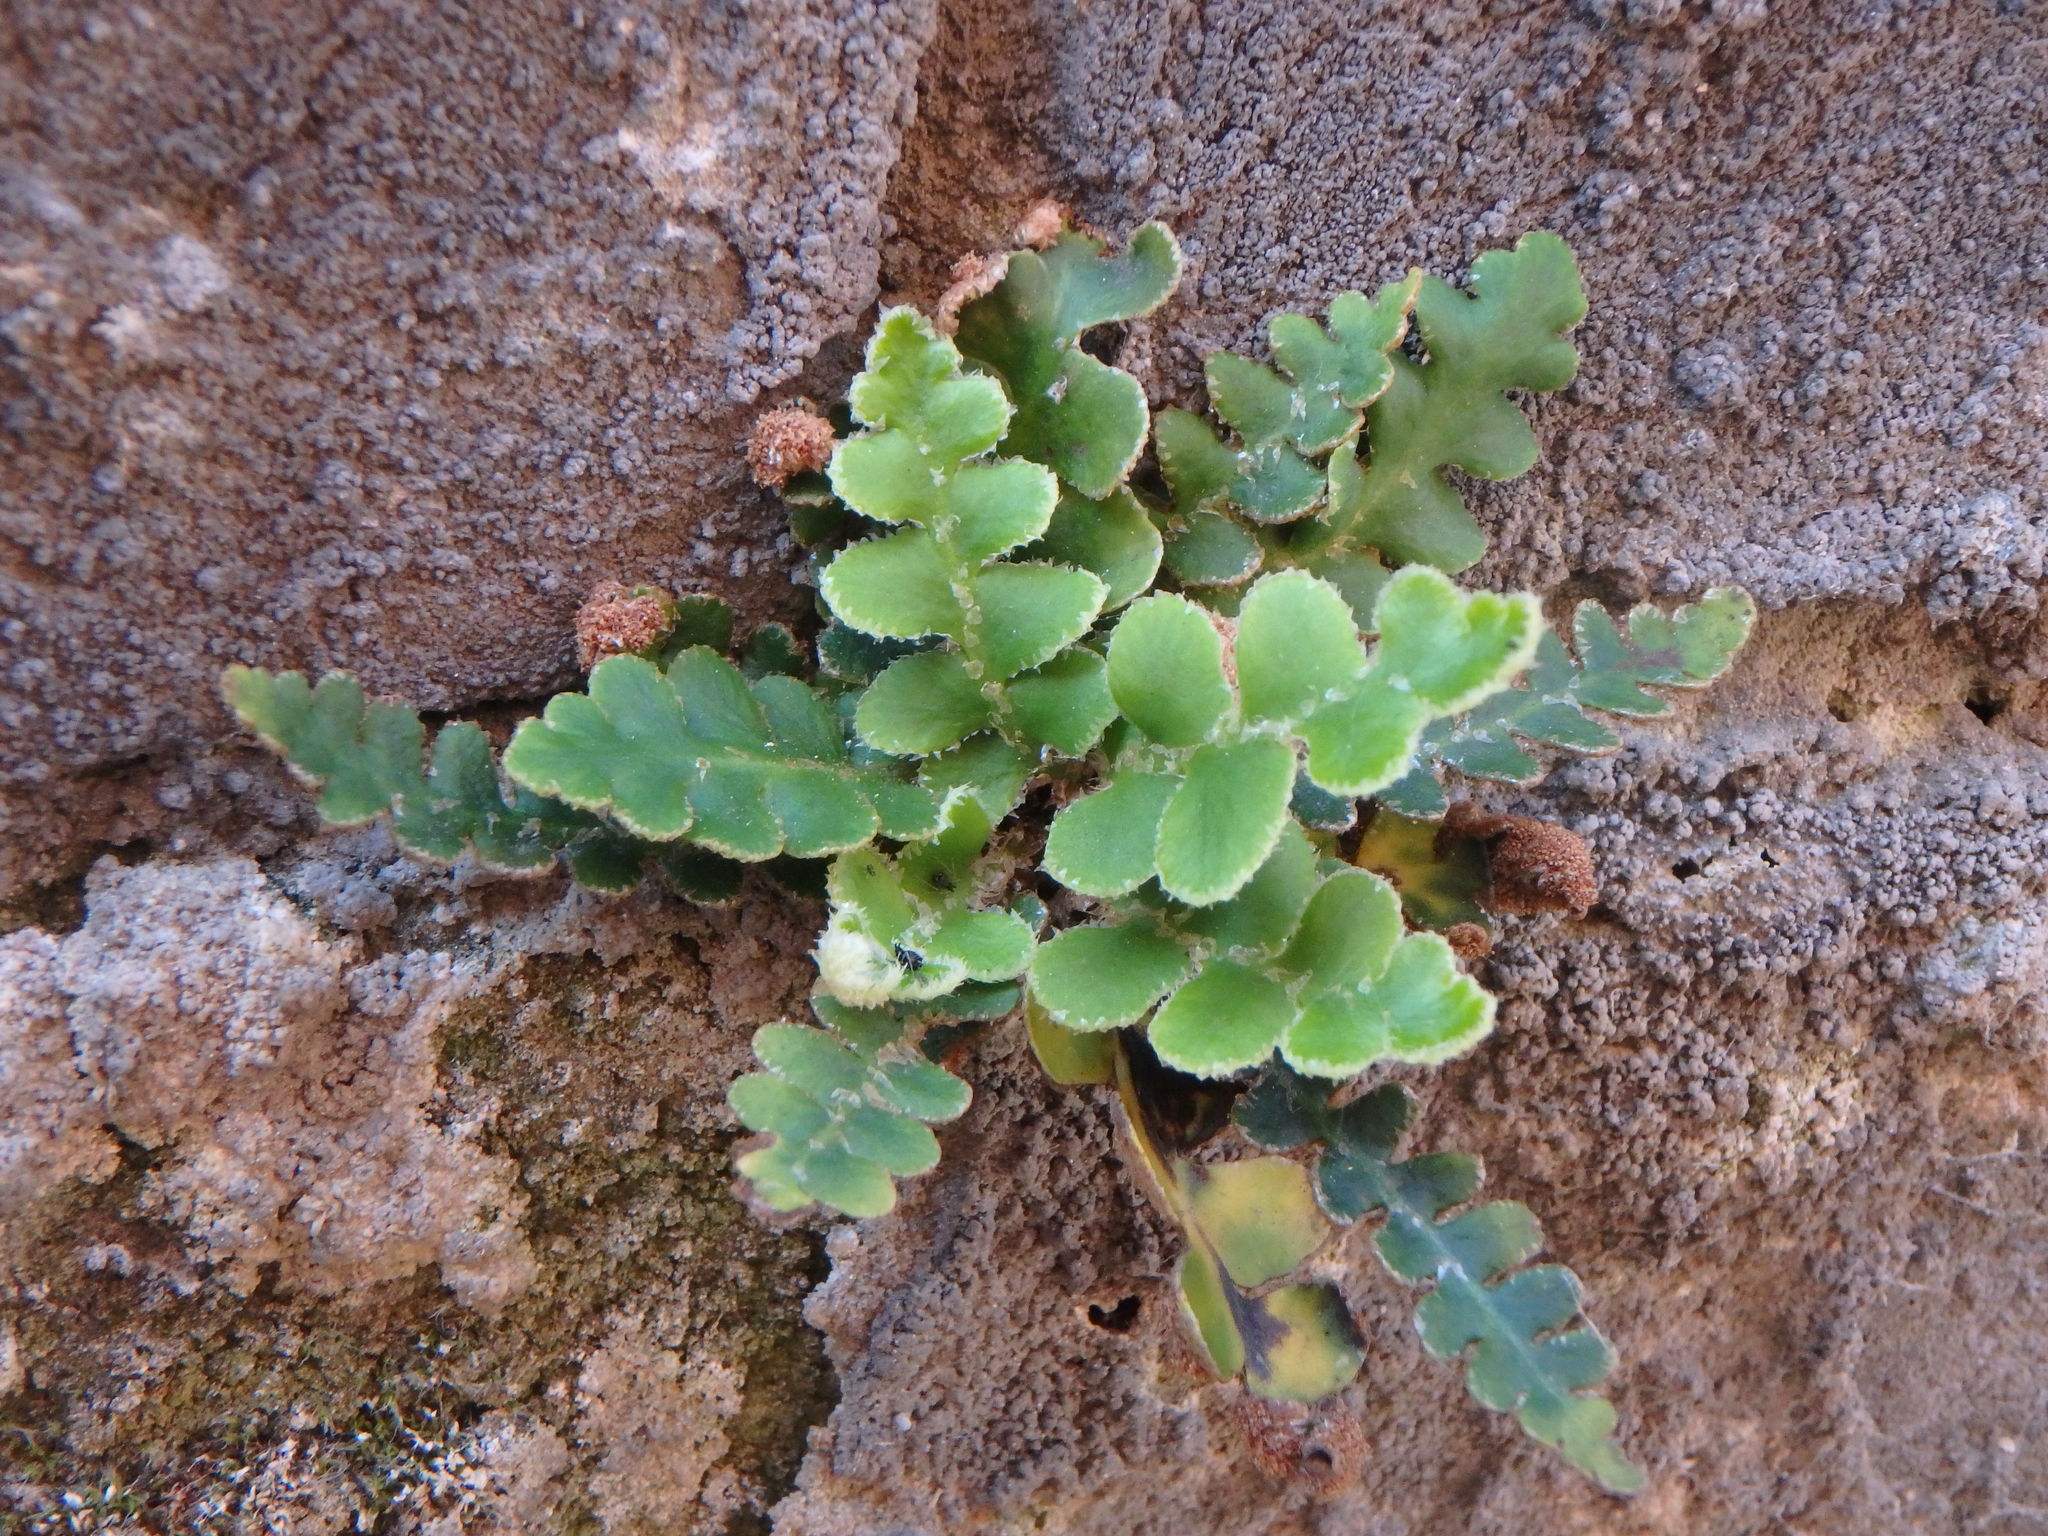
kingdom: Plantae
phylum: Tracheophyta
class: Polypodiopsida
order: Polypodiales
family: Aspleniaceae
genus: Asplenium
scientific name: Asplenium ceterach
